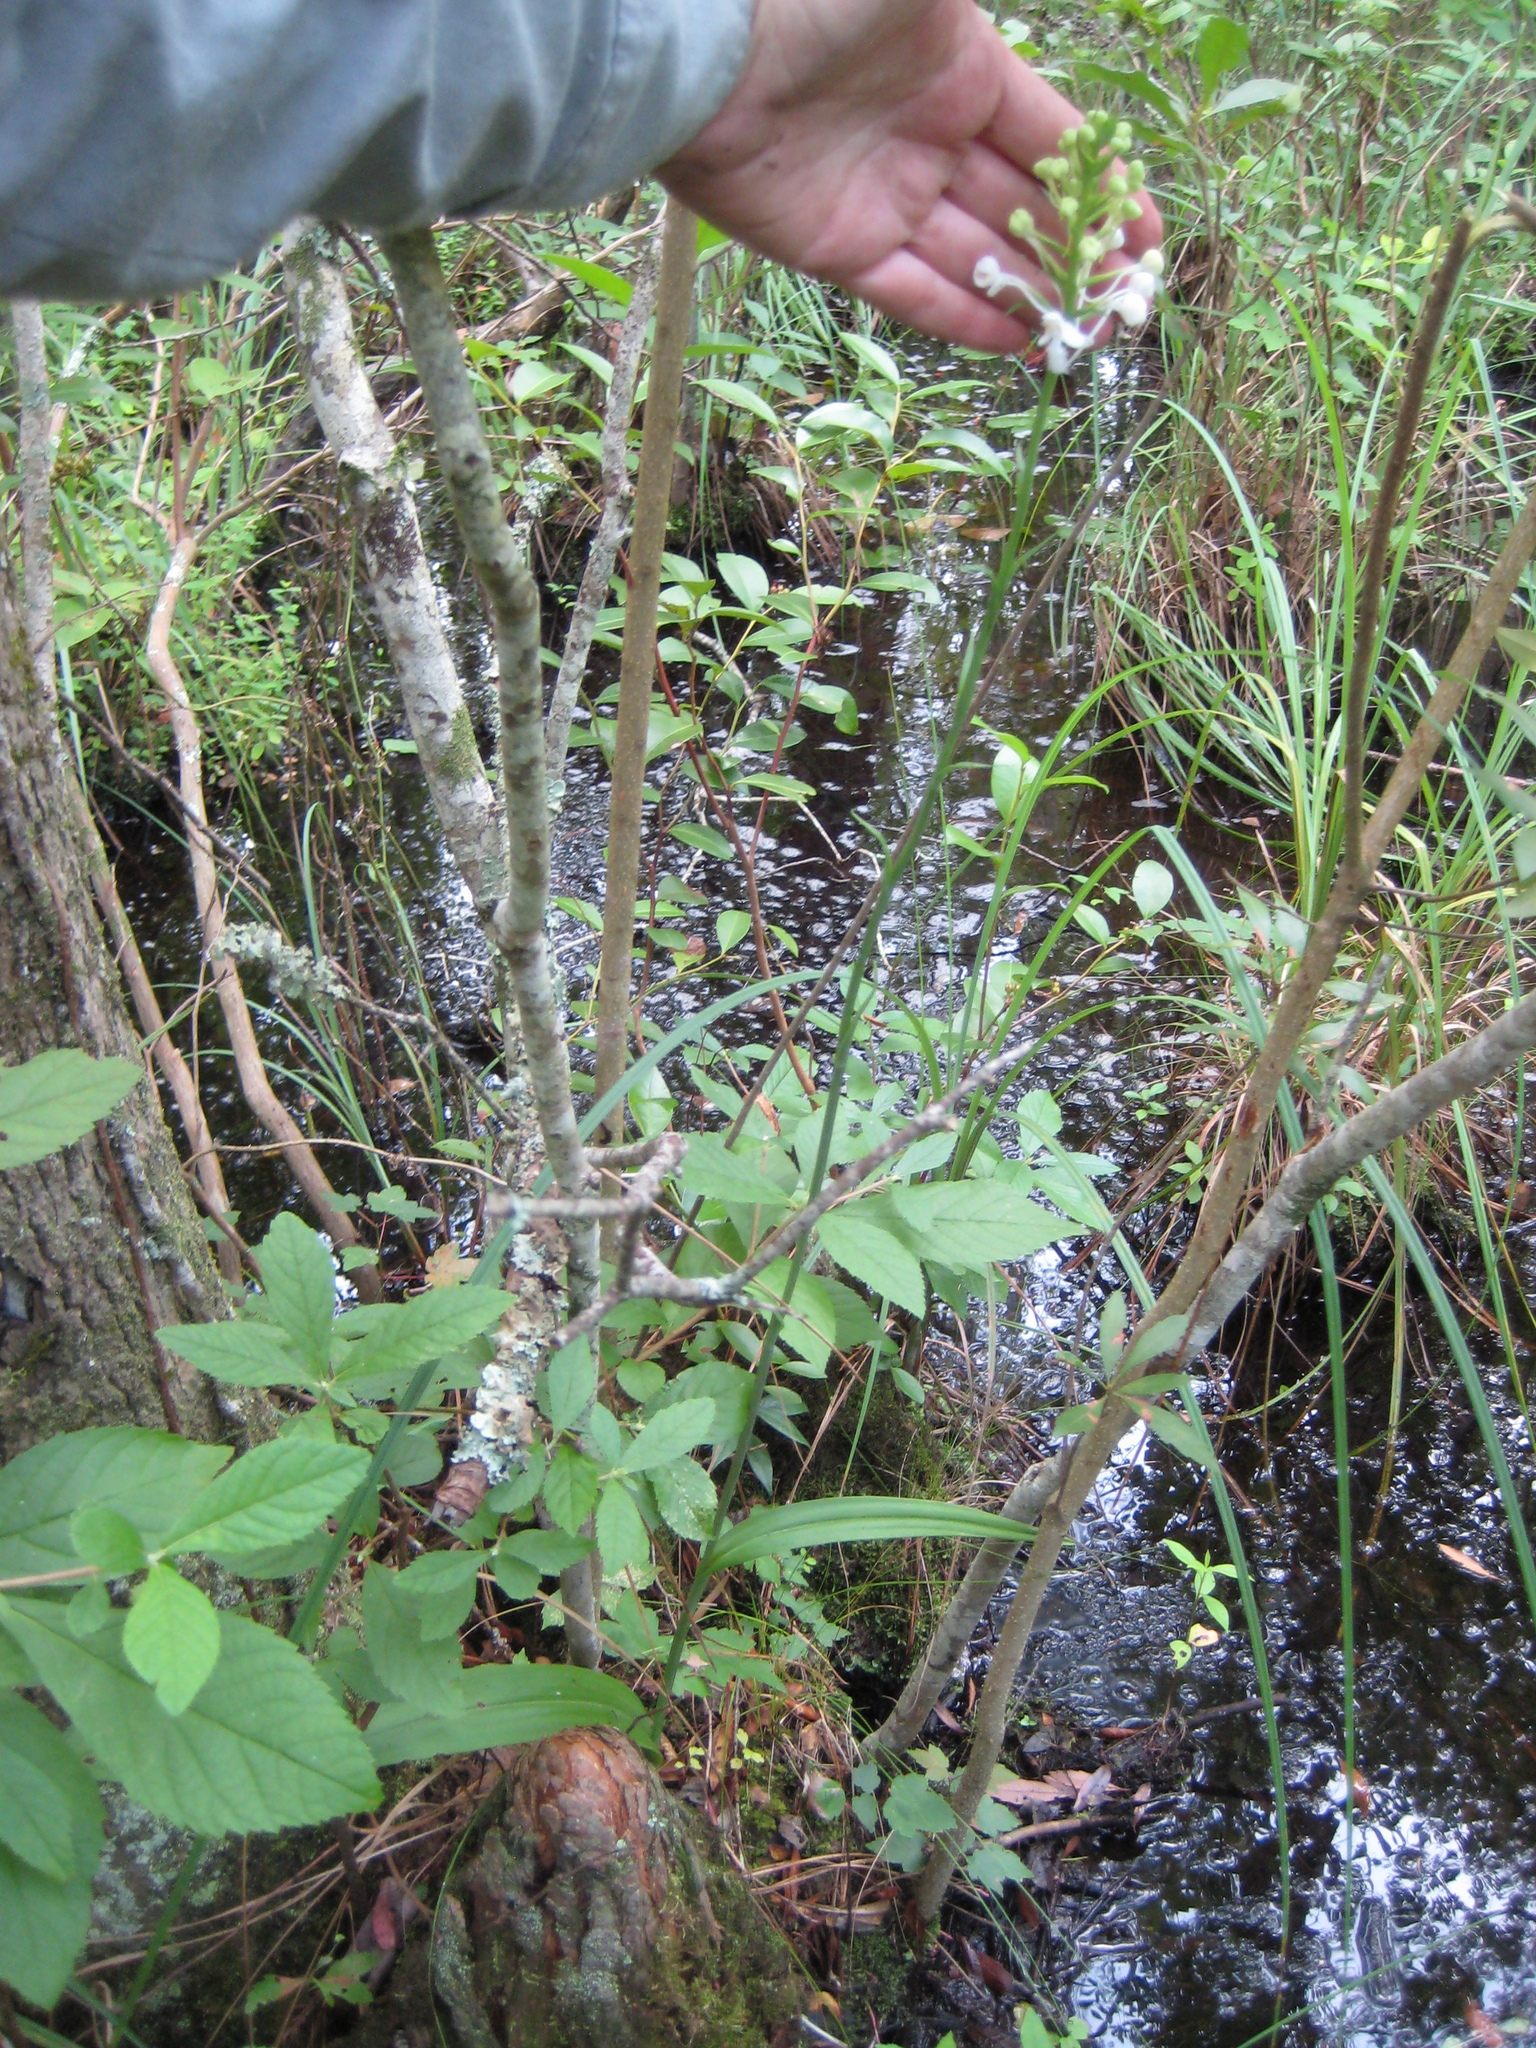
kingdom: Plantae
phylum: Tracheophyta
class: Liliopsida
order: Asparagales
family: Orchidaceae
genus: Platanthera
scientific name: Platanthera blephariglottis
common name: White fringed orchid
